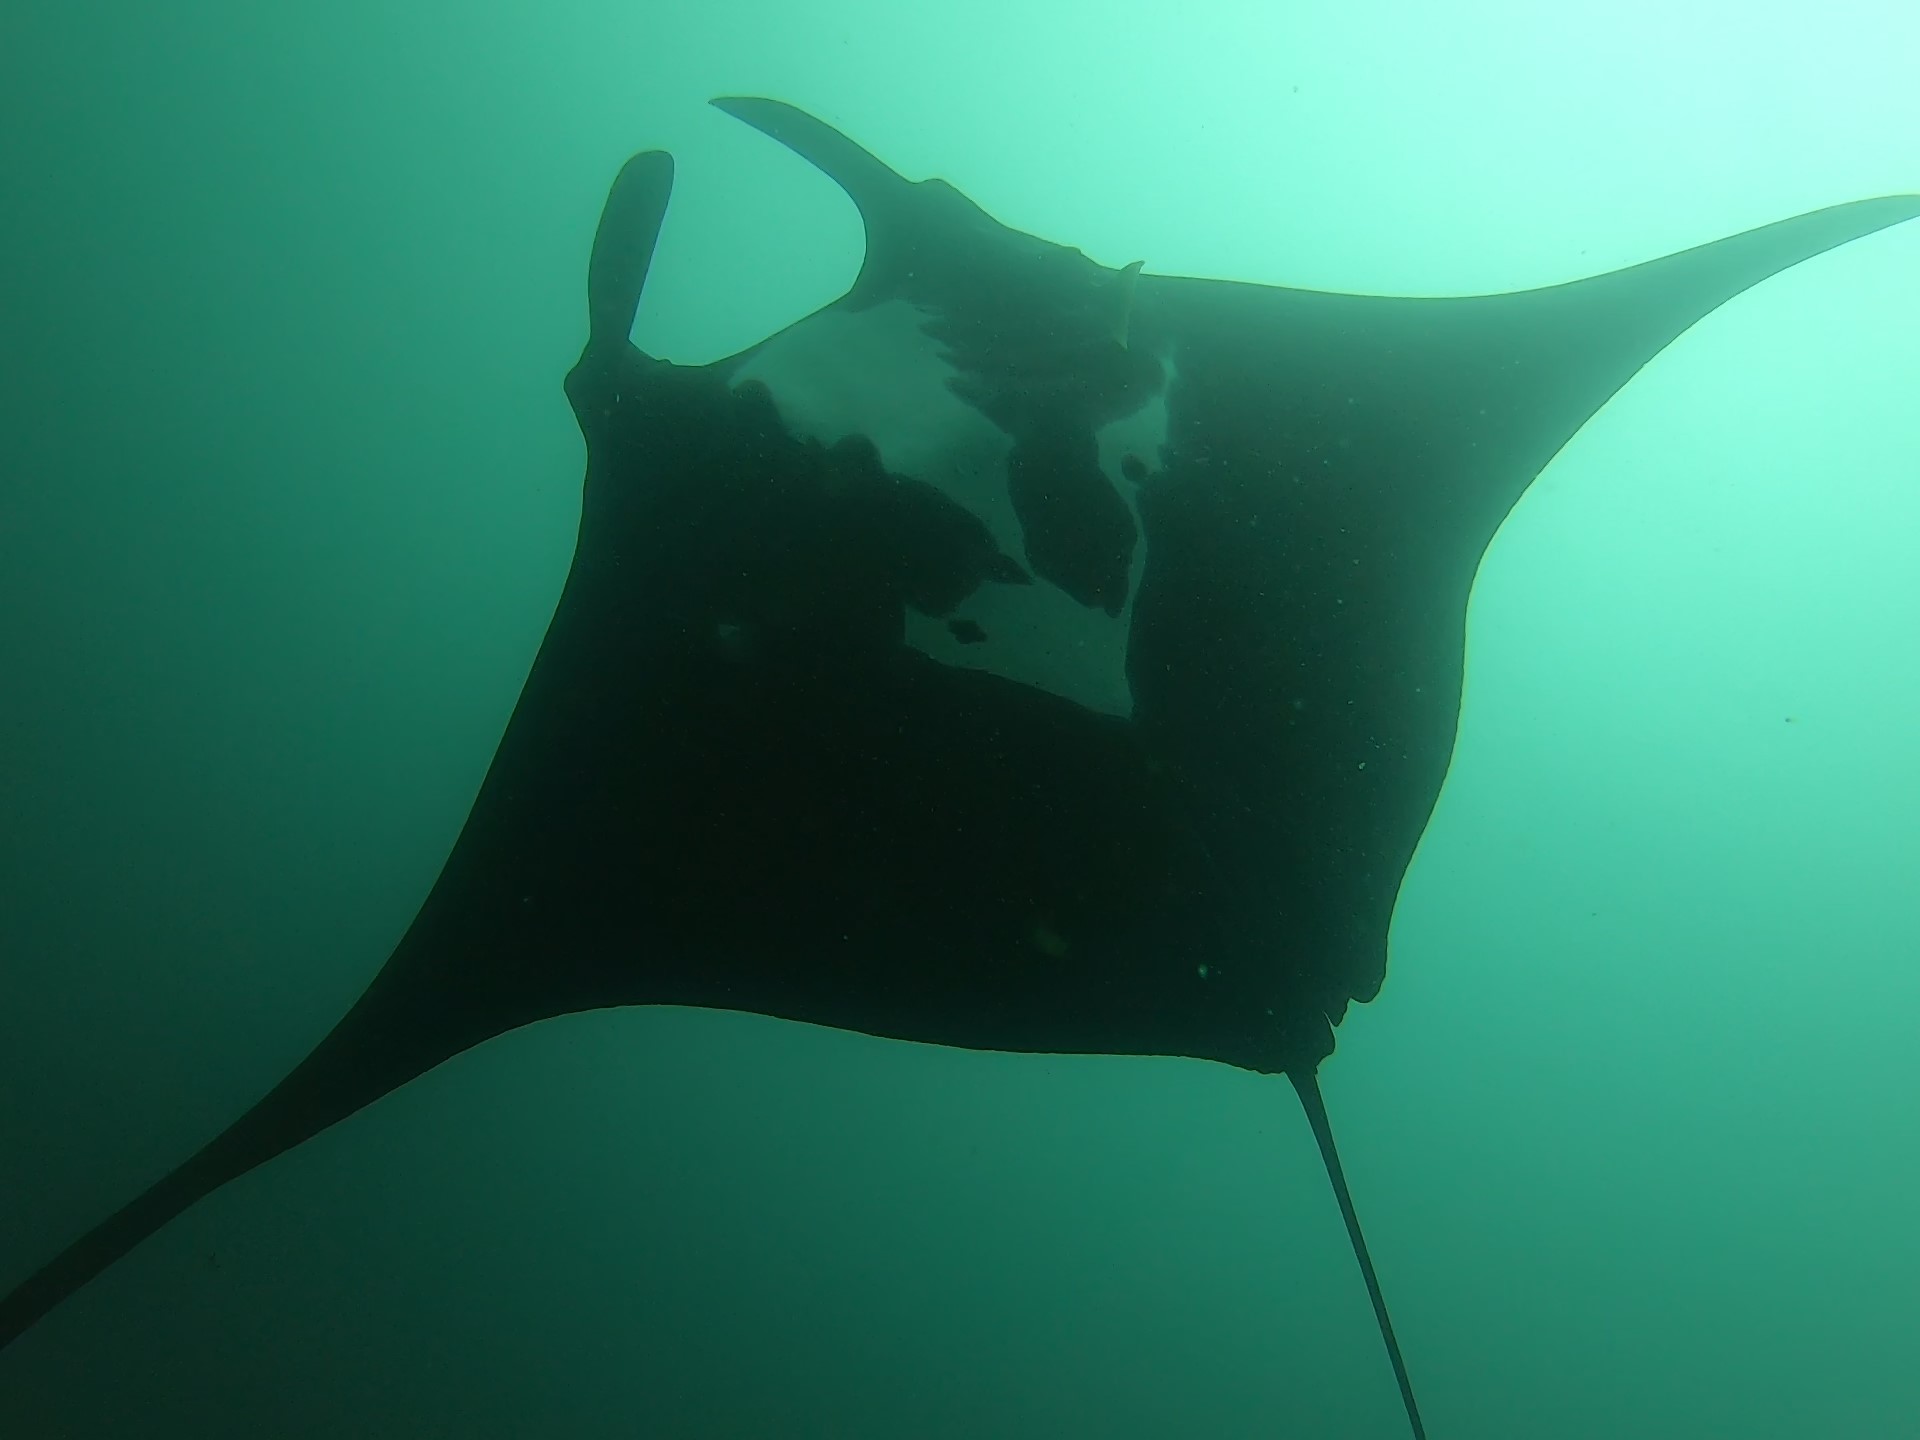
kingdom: Animalia
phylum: Chordata
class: Elasmobranchii
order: Myliobatiformes
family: Myliobatidae
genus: Mobula
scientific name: Mobula birostris
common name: Manta ray
